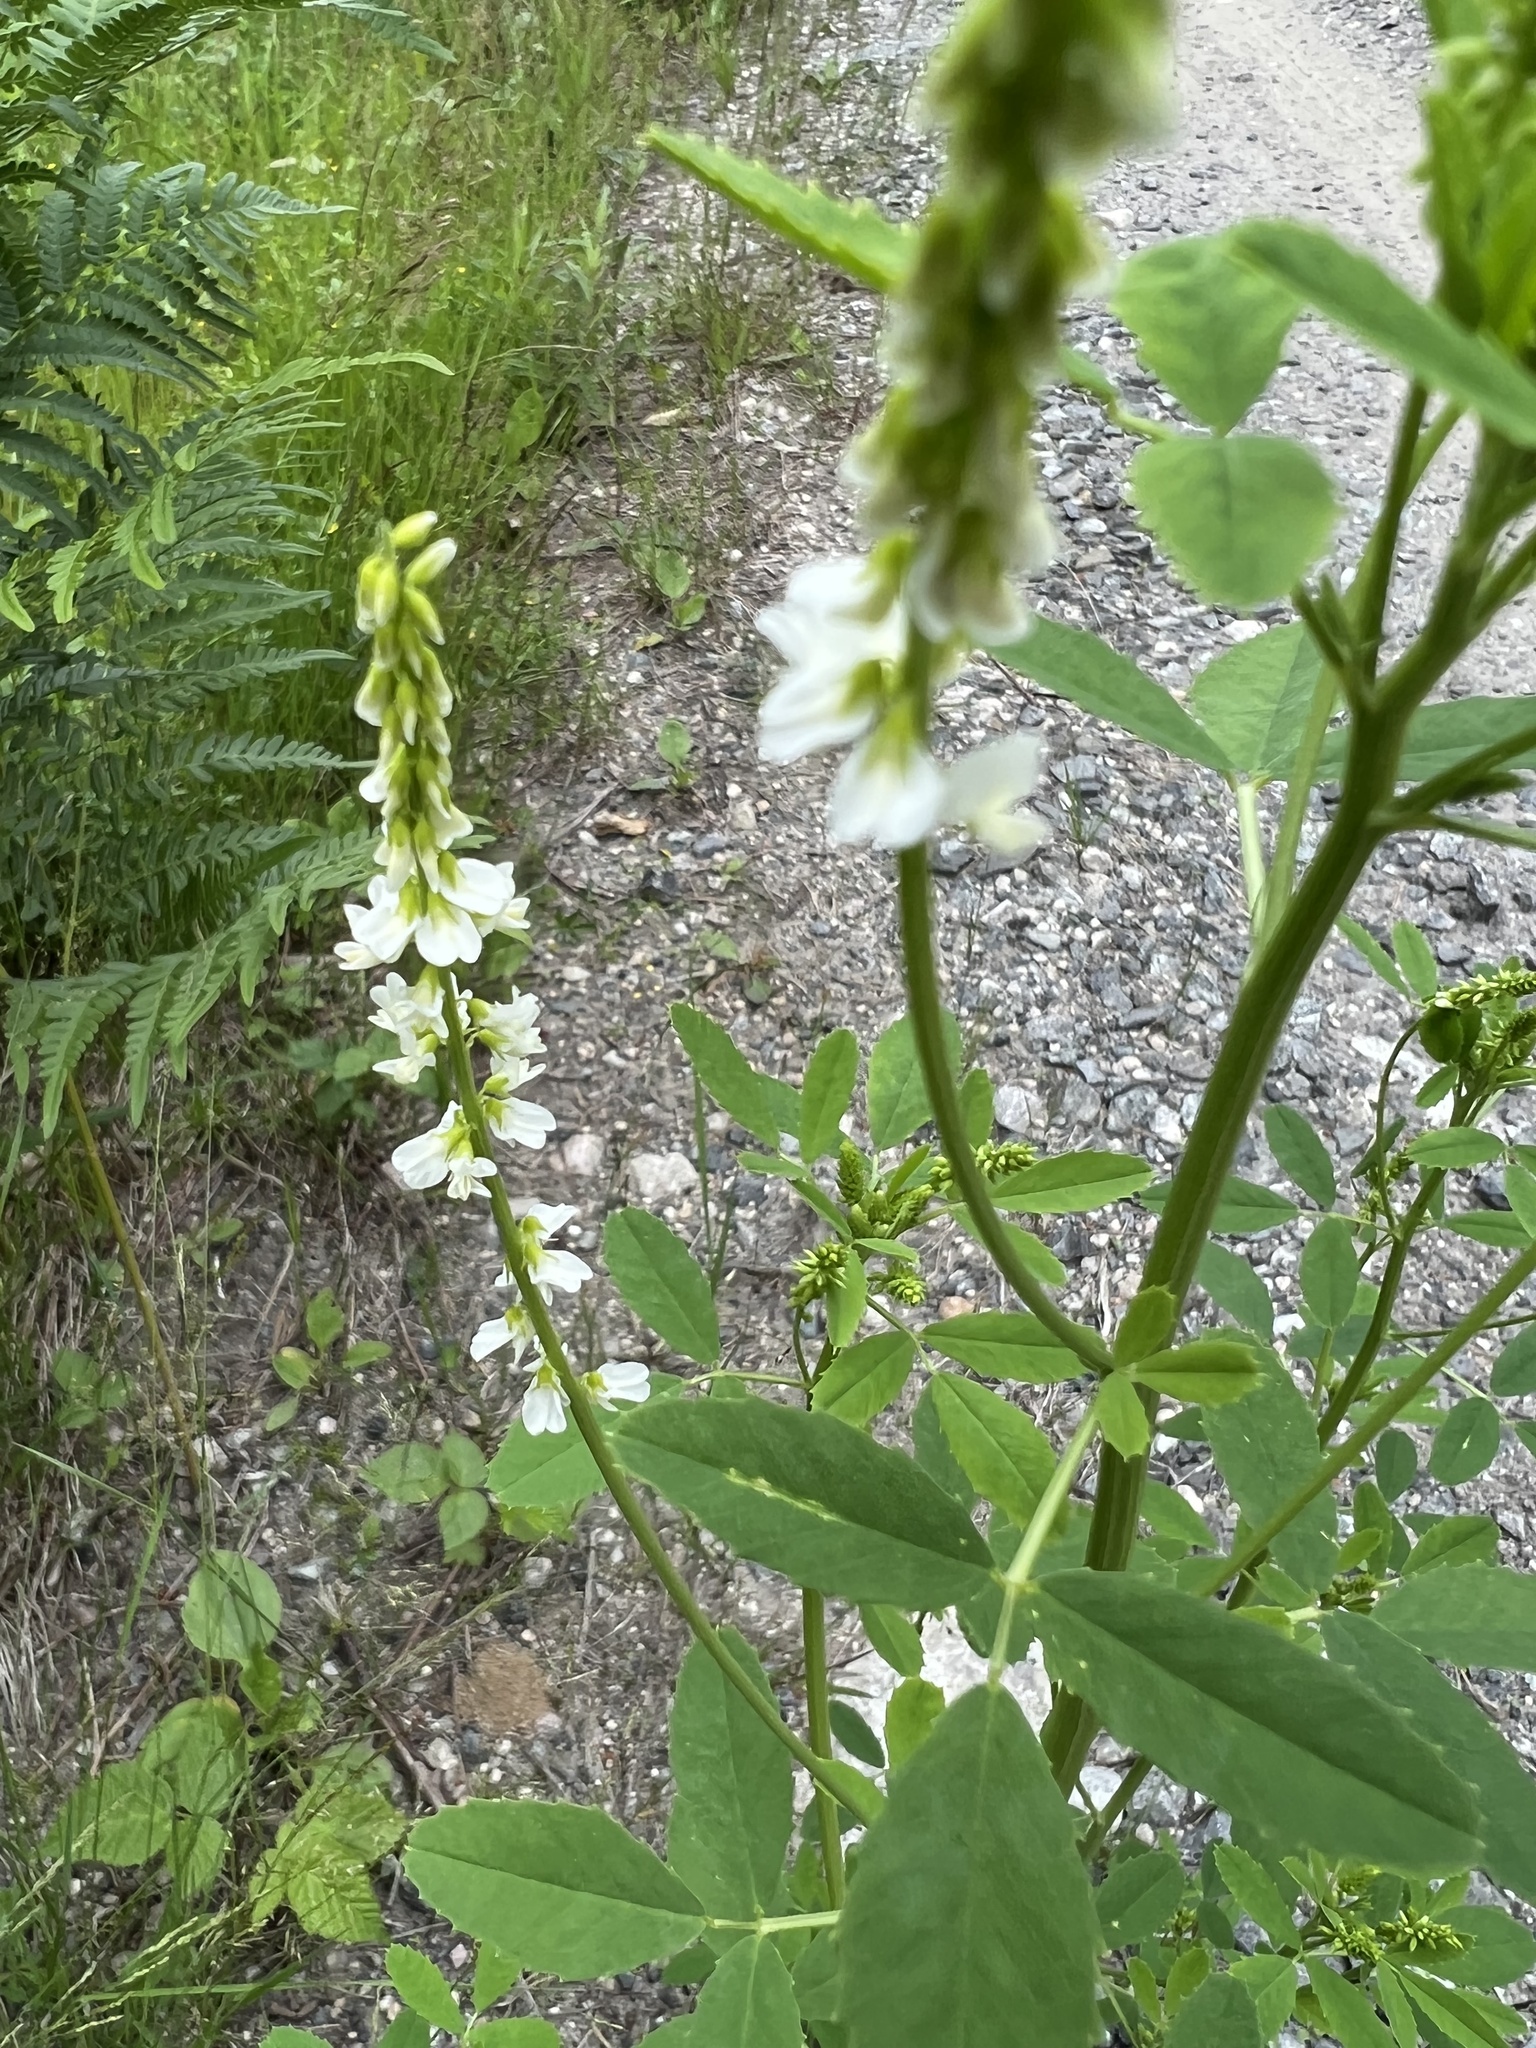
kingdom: Plantae
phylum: Tracheophyta
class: Magnoliopsida
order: Fabales
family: Fabaceae
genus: Melilotus
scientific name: Melilotus albus
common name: White melilot
